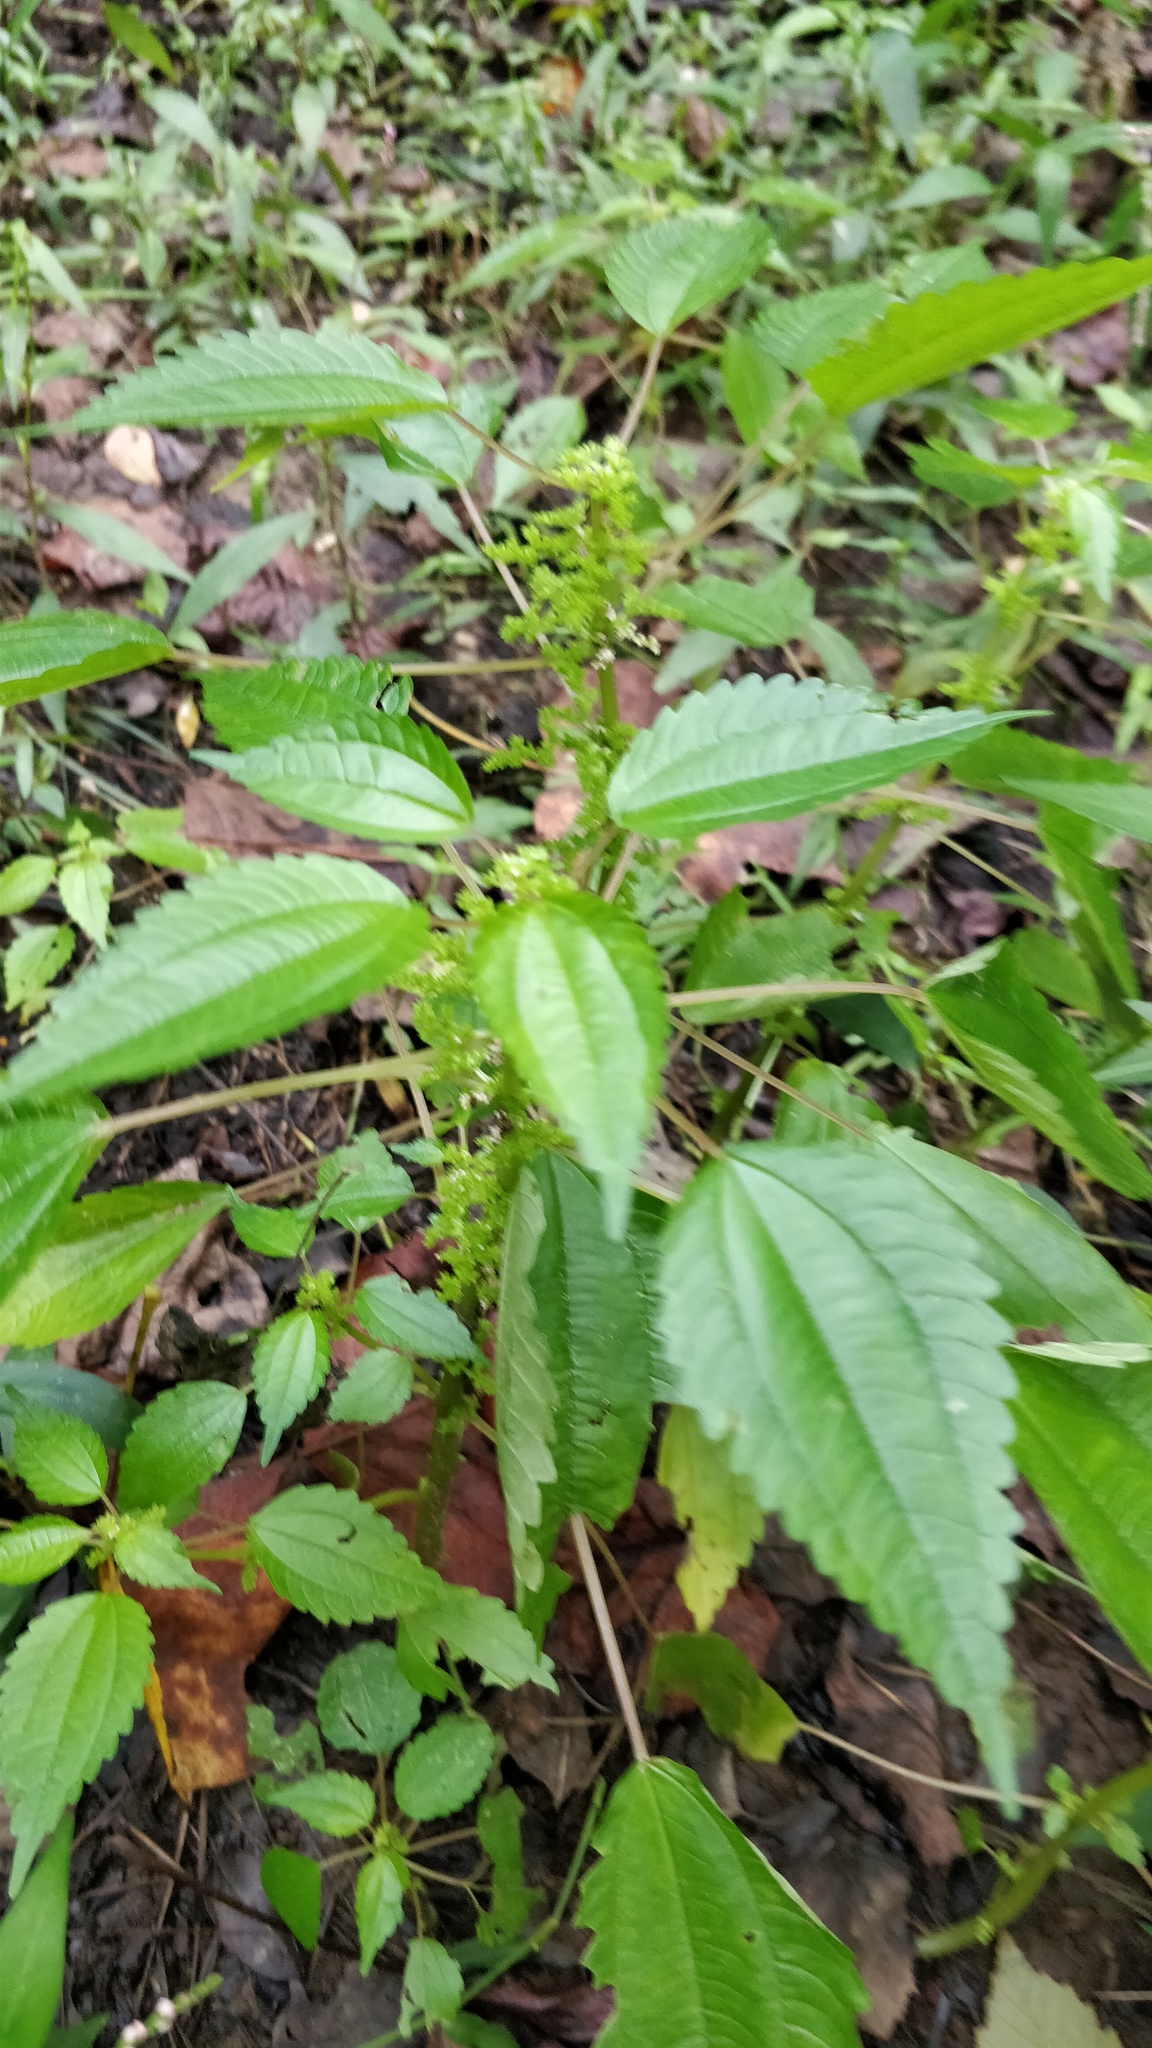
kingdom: Plantae
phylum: Tracheophyta
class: Magnoliopsida
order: Rosales
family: Urticaceae
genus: Pilea
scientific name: Pilea pumila
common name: Clearweed
